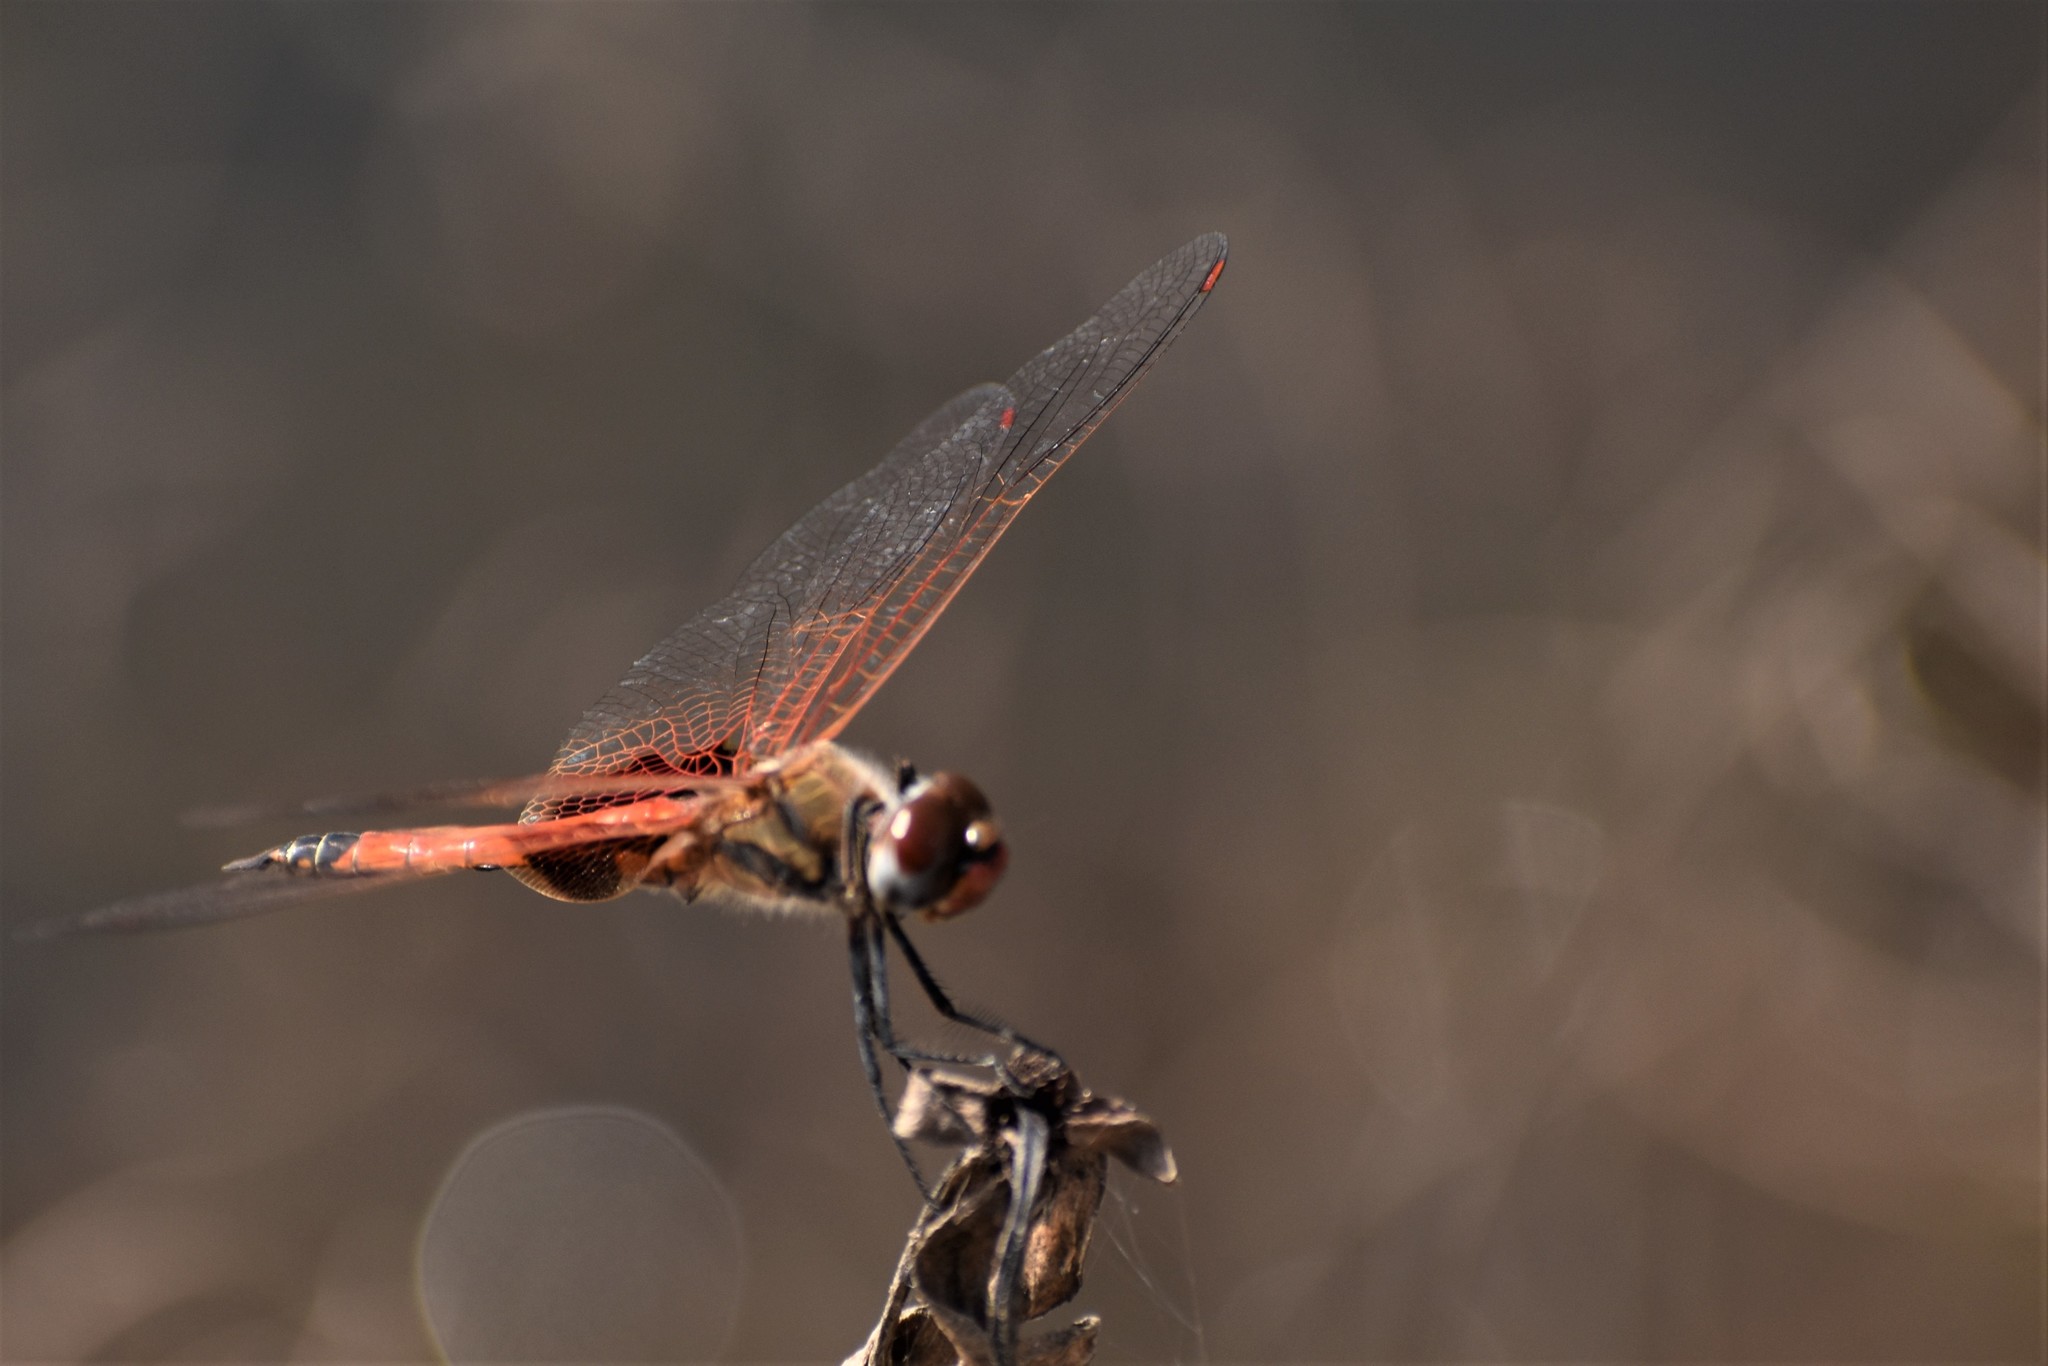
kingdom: Animalia
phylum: Arthropoda
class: Insecta
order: Odonata
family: Libellulidae
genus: Tramea
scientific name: Tramea loewii
